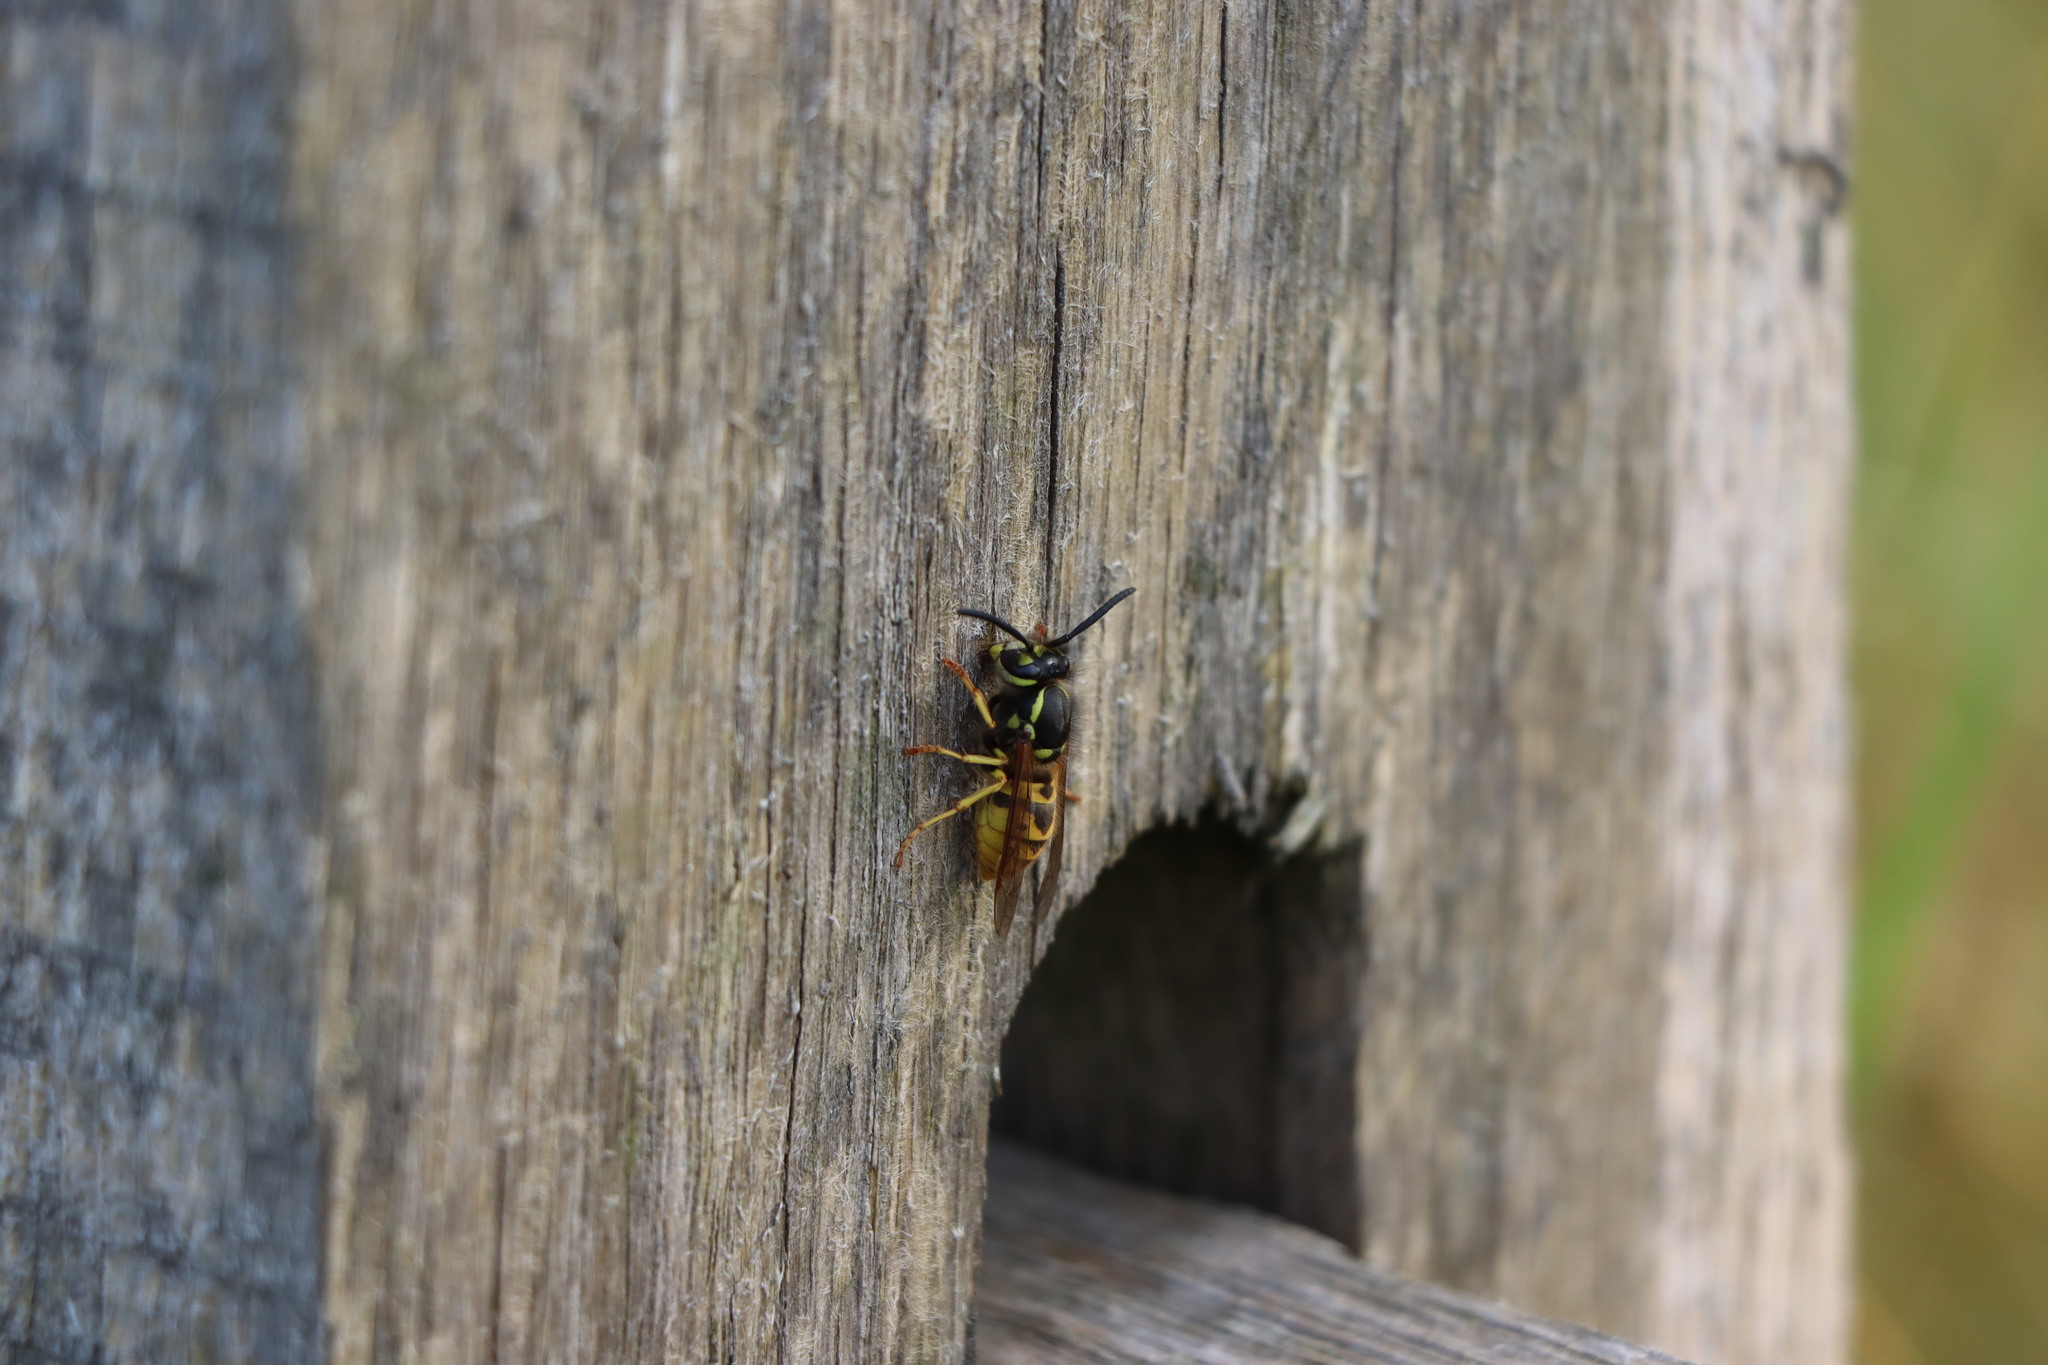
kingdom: Animalia
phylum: Arthropoda
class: Insecta
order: Hymenoptera
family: Vespidae
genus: Vespula
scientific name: Vespula germanica
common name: German wasp
